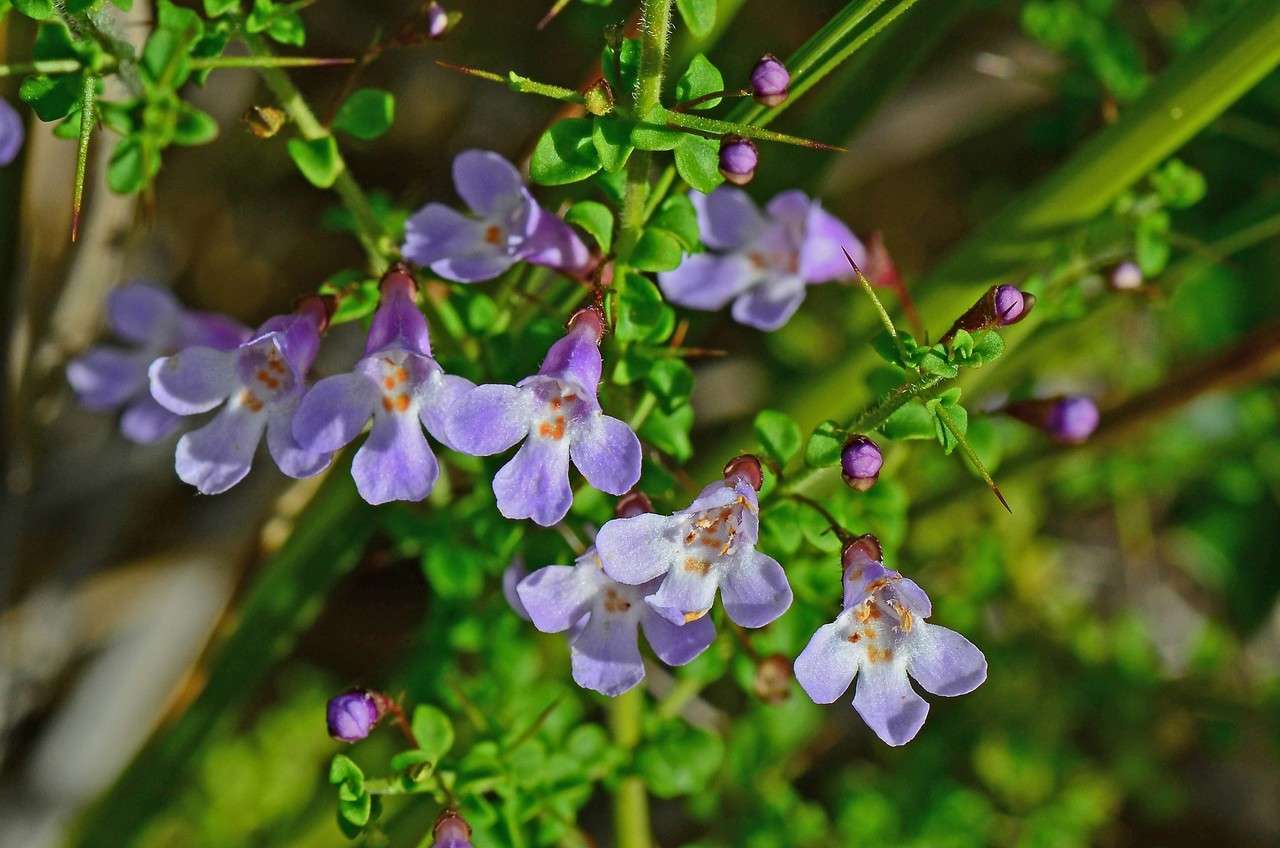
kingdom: Plantae
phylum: Tracheophyta
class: Magnoliopsida
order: Lamiales
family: Lamiaceae
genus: Prostanthera
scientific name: Prostanthera spinosa
